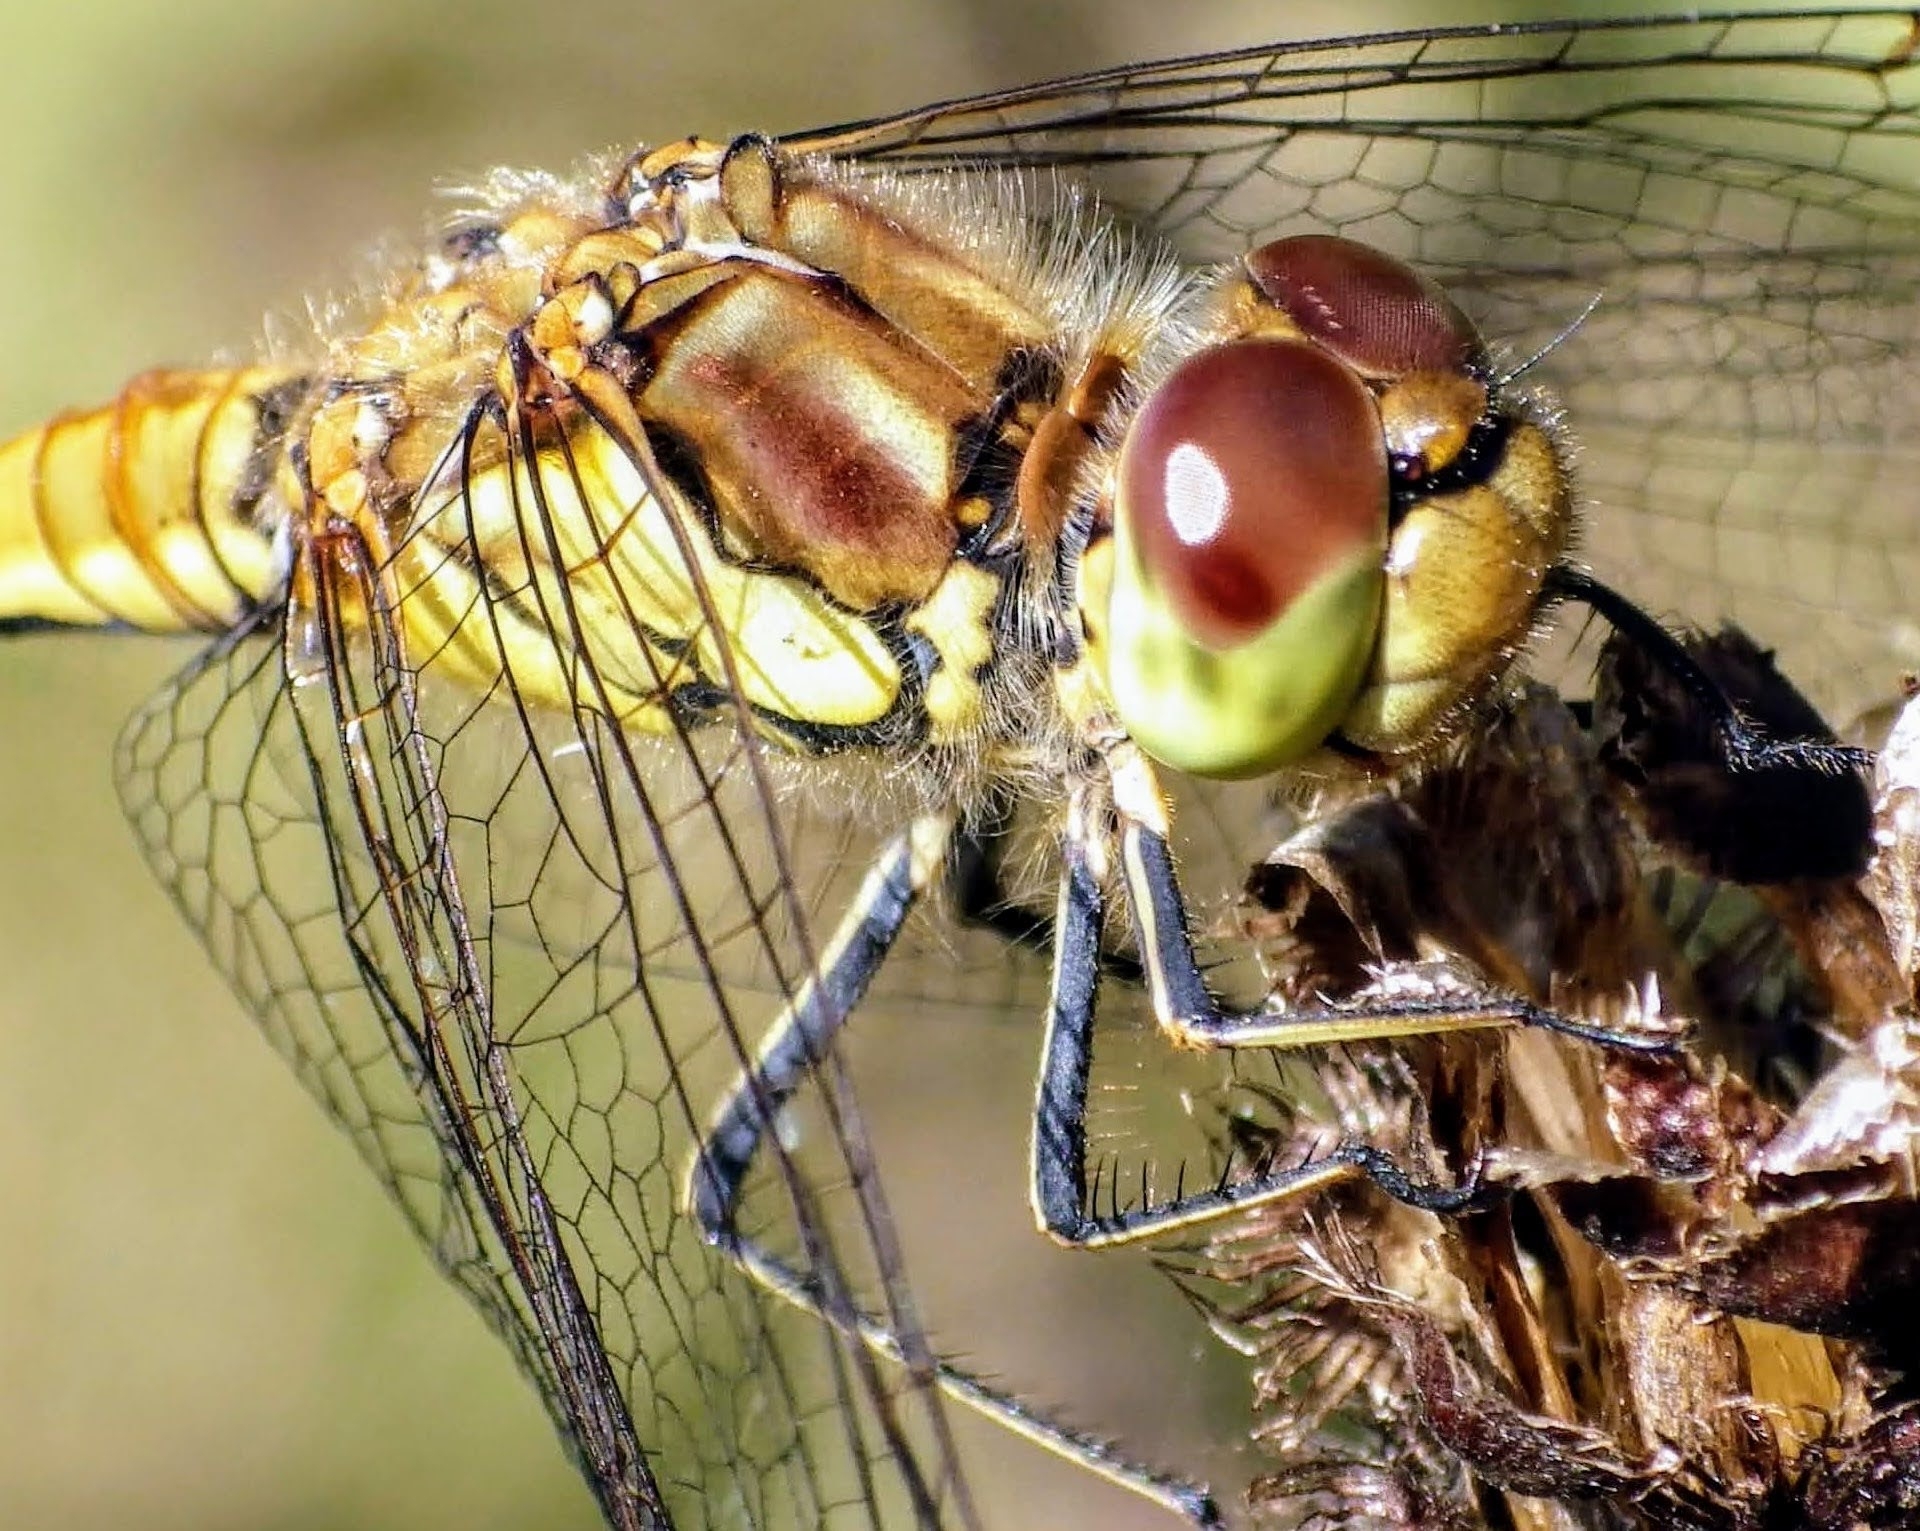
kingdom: Animalia
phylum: Arthropoda
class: Insecta
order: Odonata
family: Libellulidae
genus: Sympetrum
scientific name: Sympetrum striolatum
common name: Common darter
